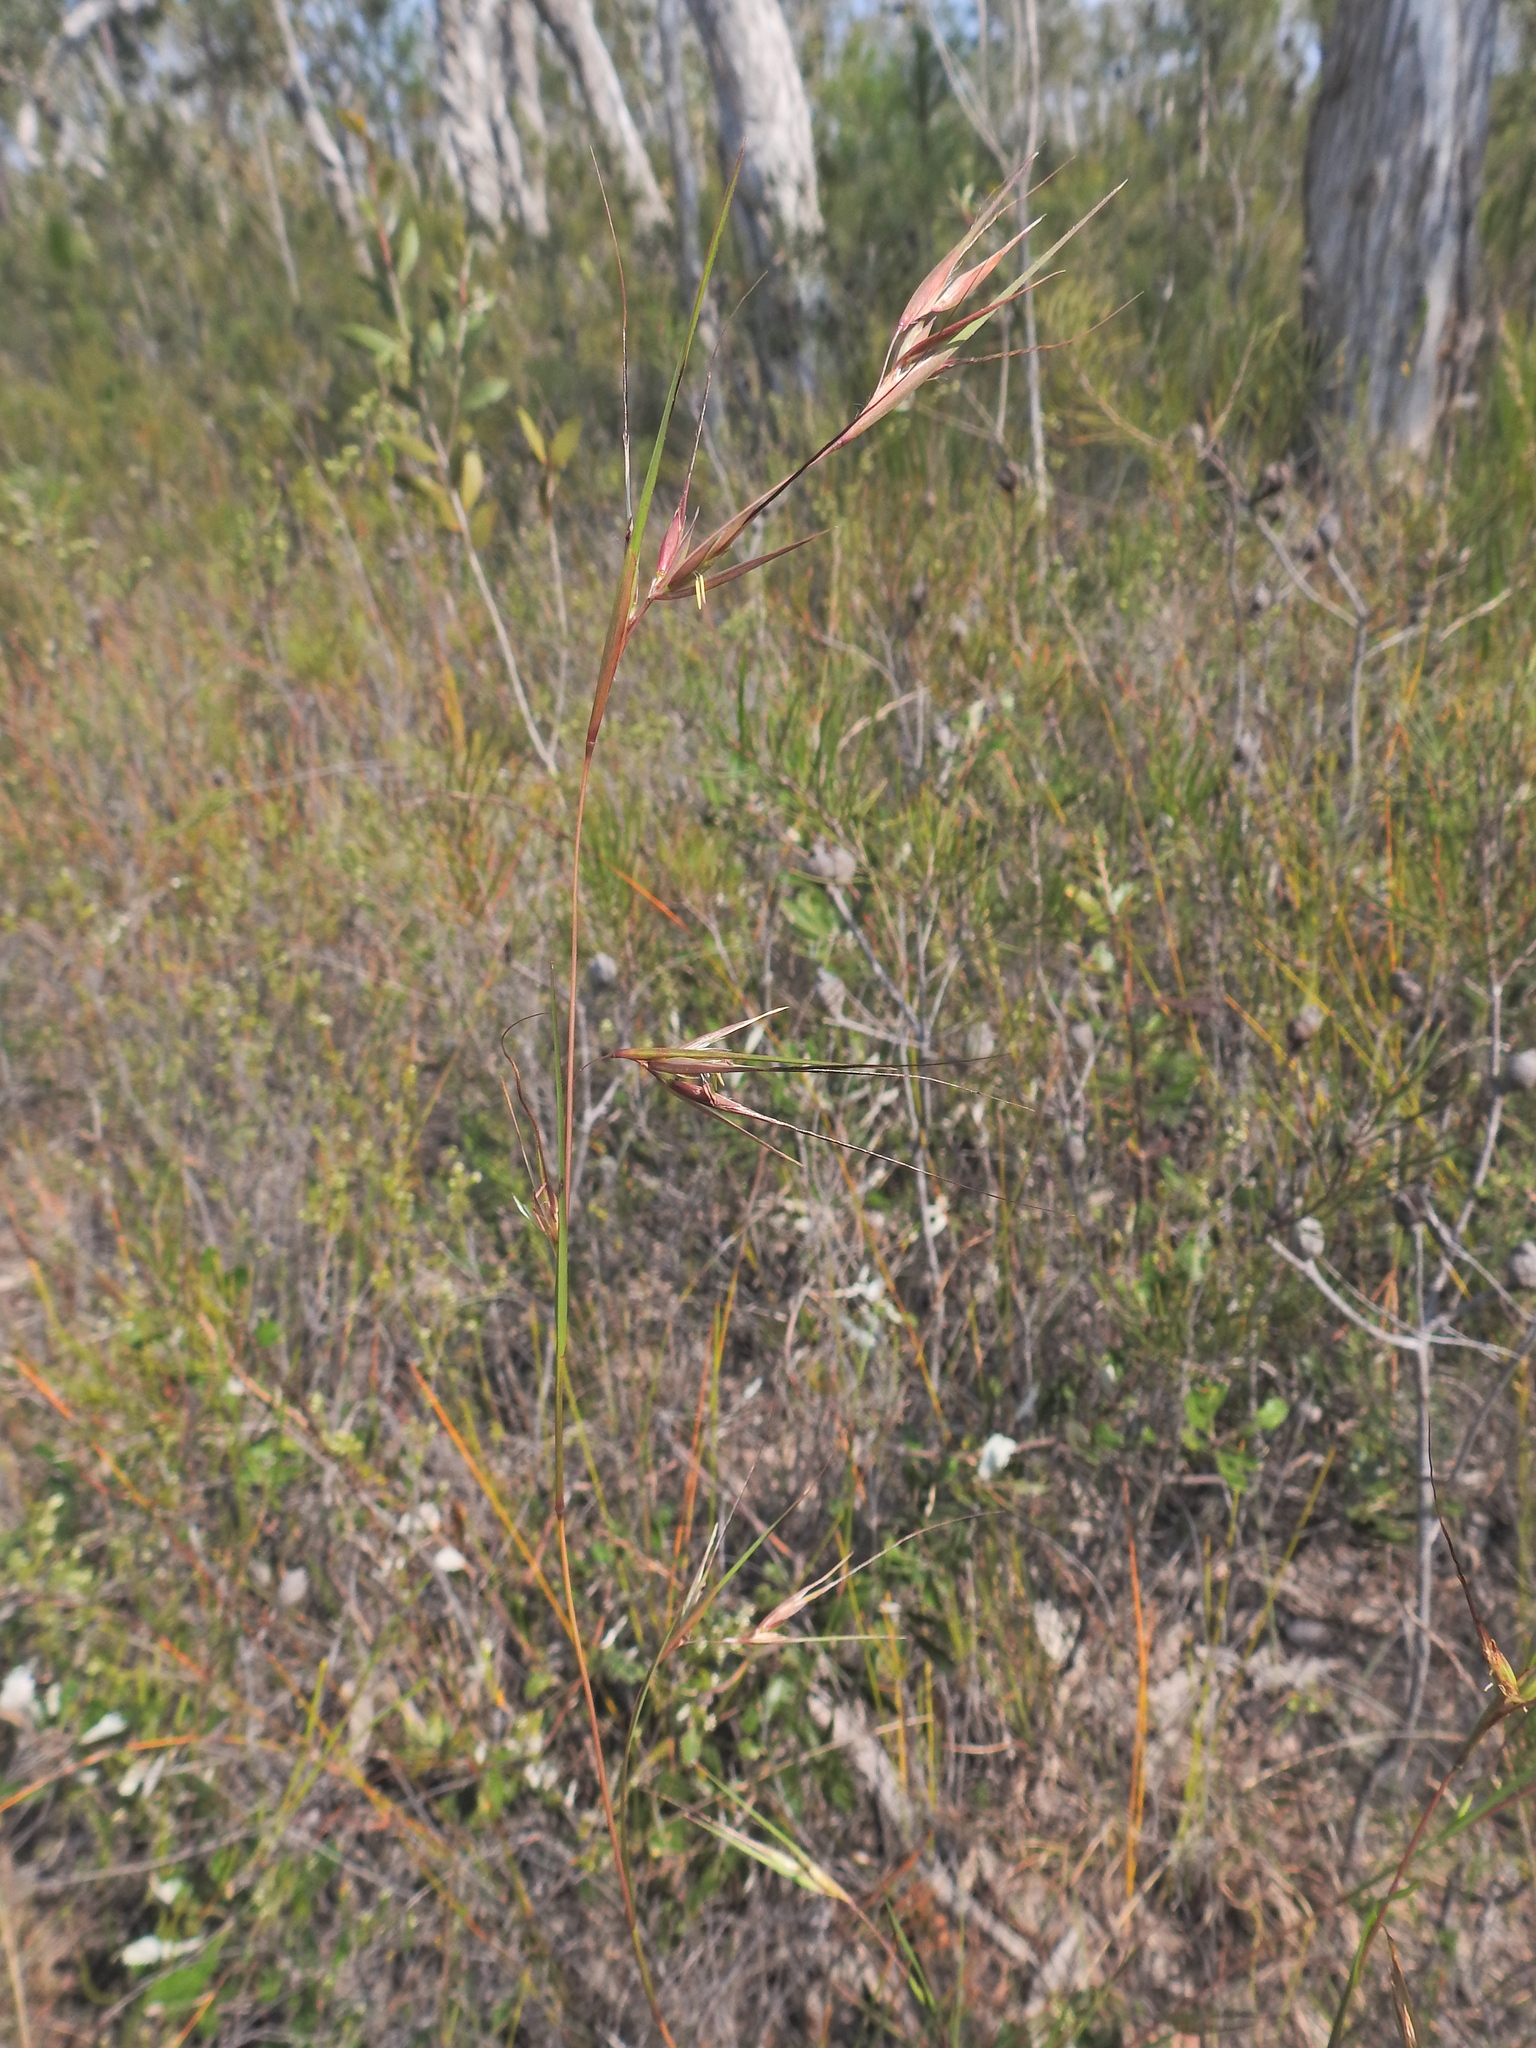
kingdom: Plantae
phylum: Tracheophyta
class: Liliopsida
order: Poales
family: Poaceae
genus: Themeda
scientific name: Themeda triandra
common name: Kangaroo grass
